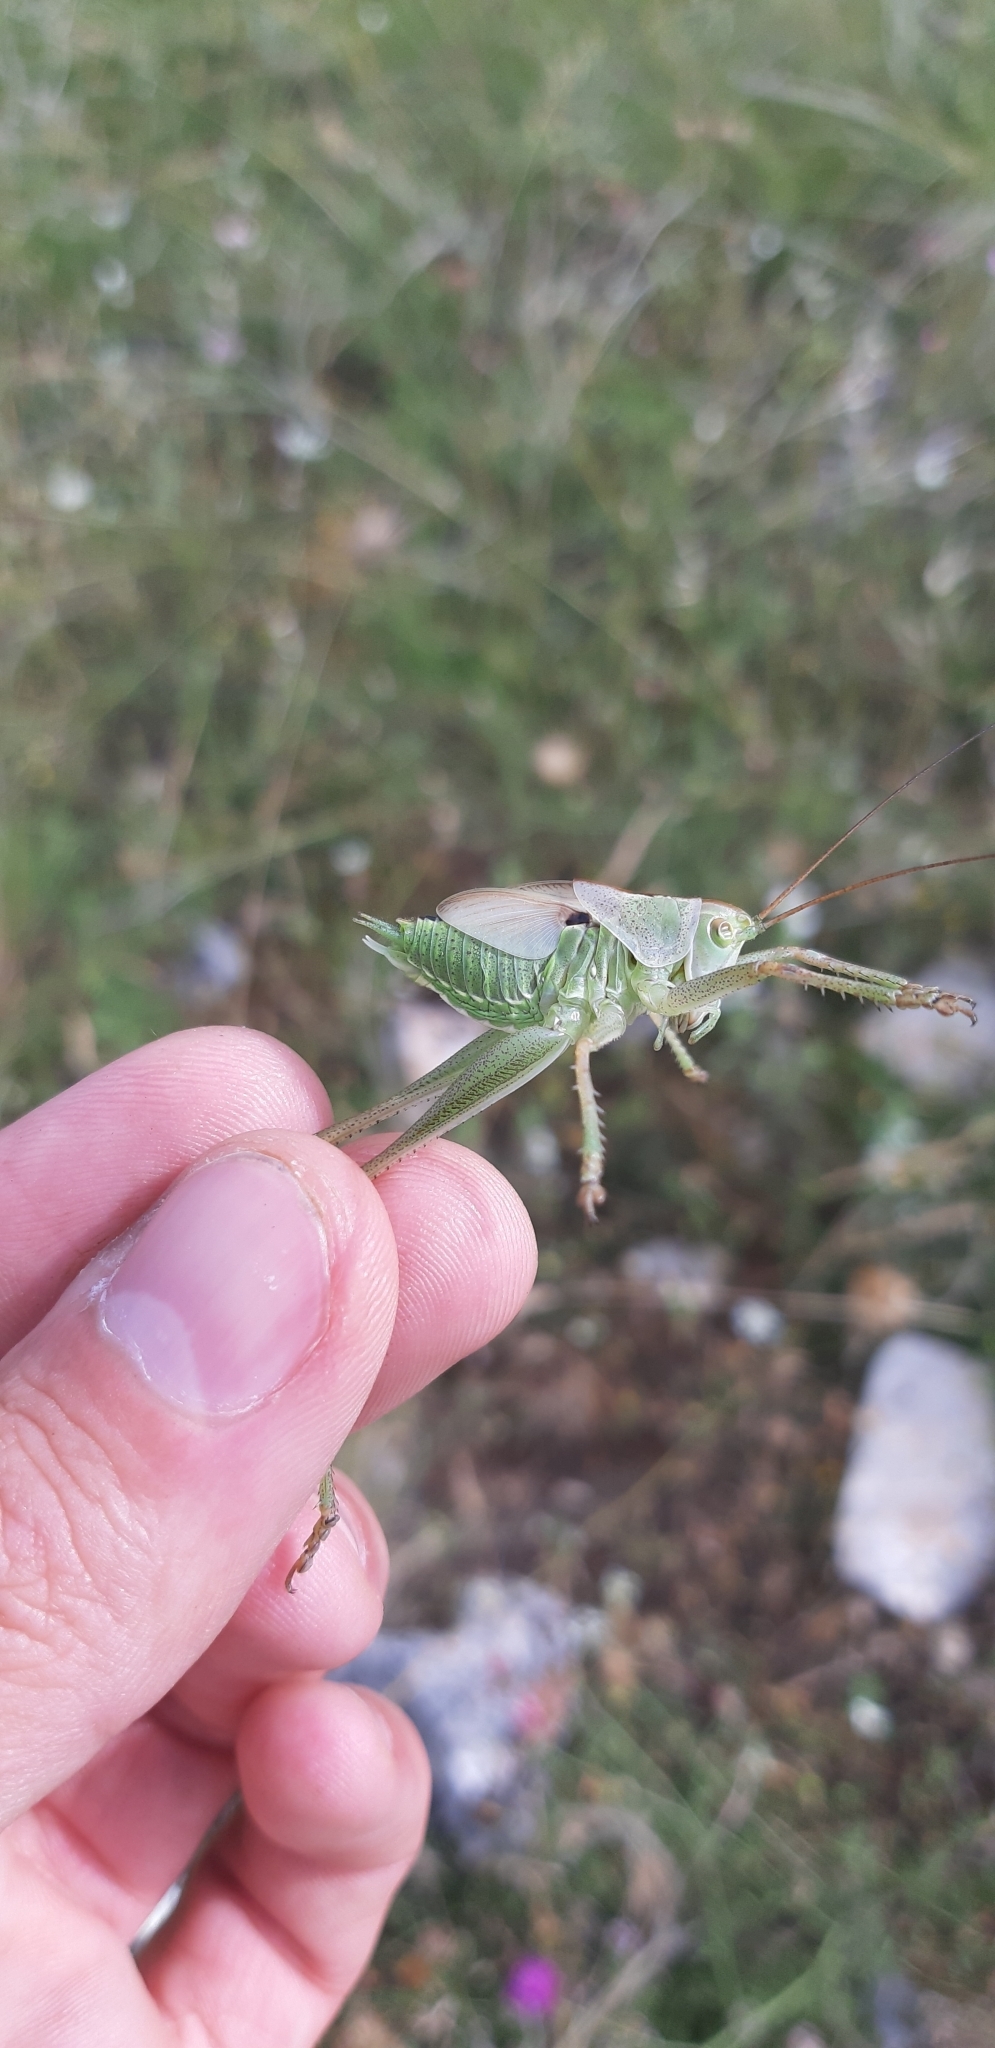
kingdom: Animalia
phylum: Arthropoda
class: Insecta
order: Orthoptera
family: Tettigoniidae
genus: Tettigonia
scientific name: Tettigonia viridissima
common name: Great green bush-cricket
